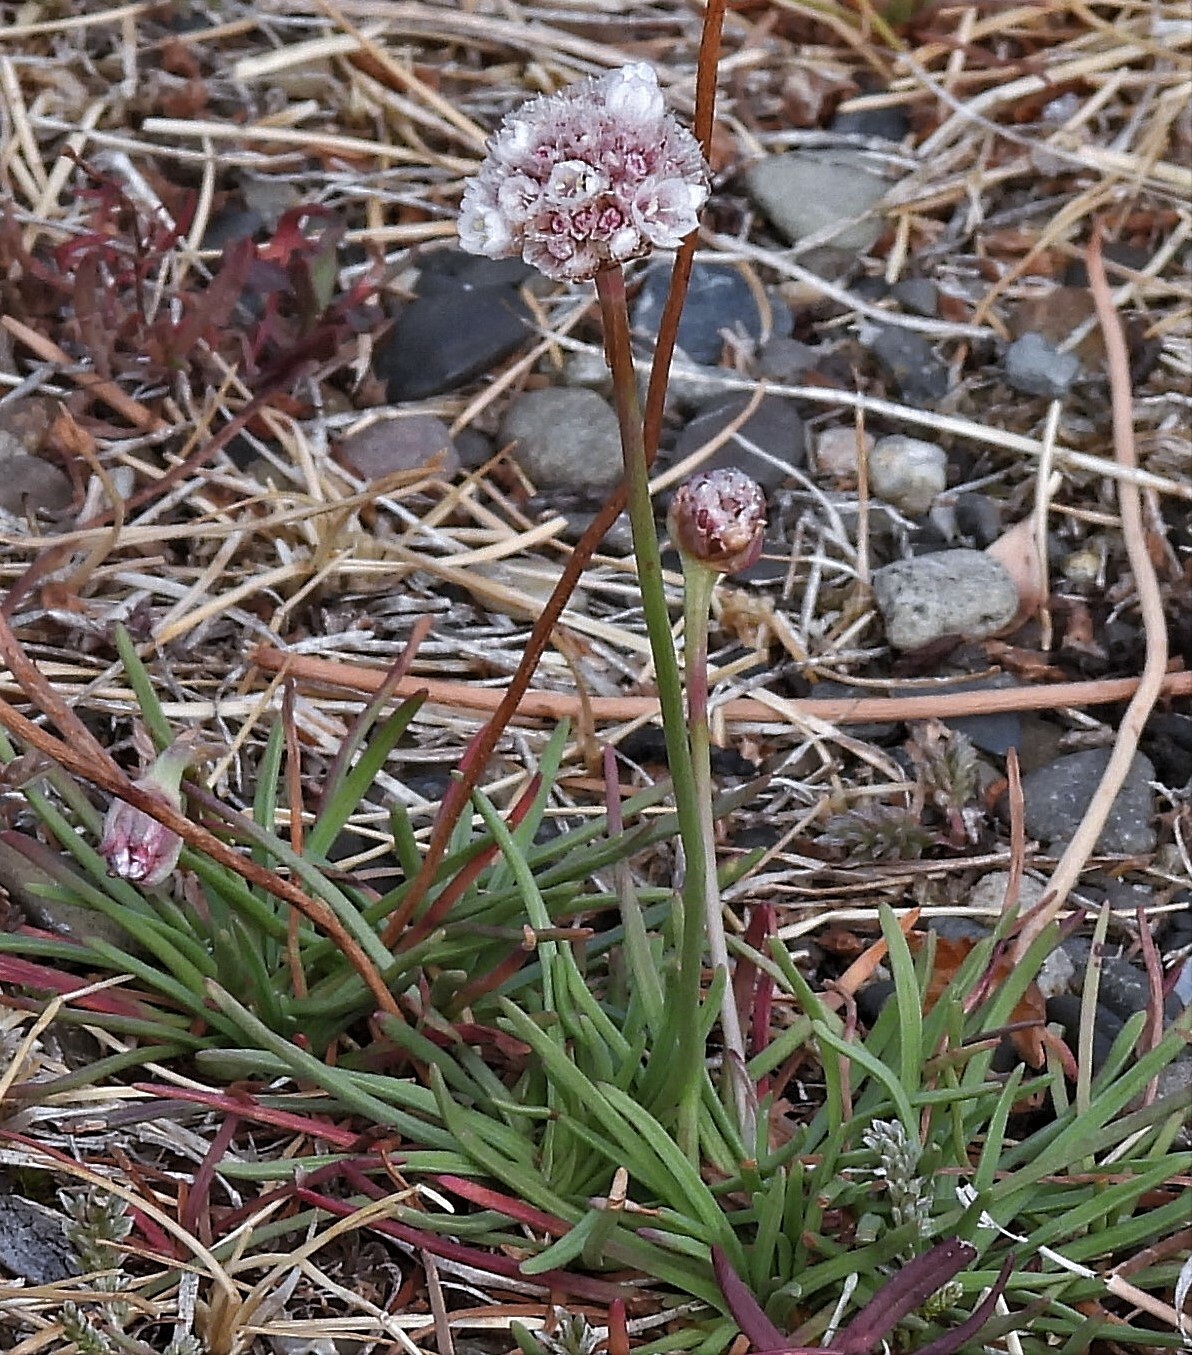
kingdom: Plantae
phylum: Tracheophyta
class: Magnoliopsida
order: Caryophyllales
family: Plumbaginaceae
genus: Armeria
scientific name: Armeria curvifolia
